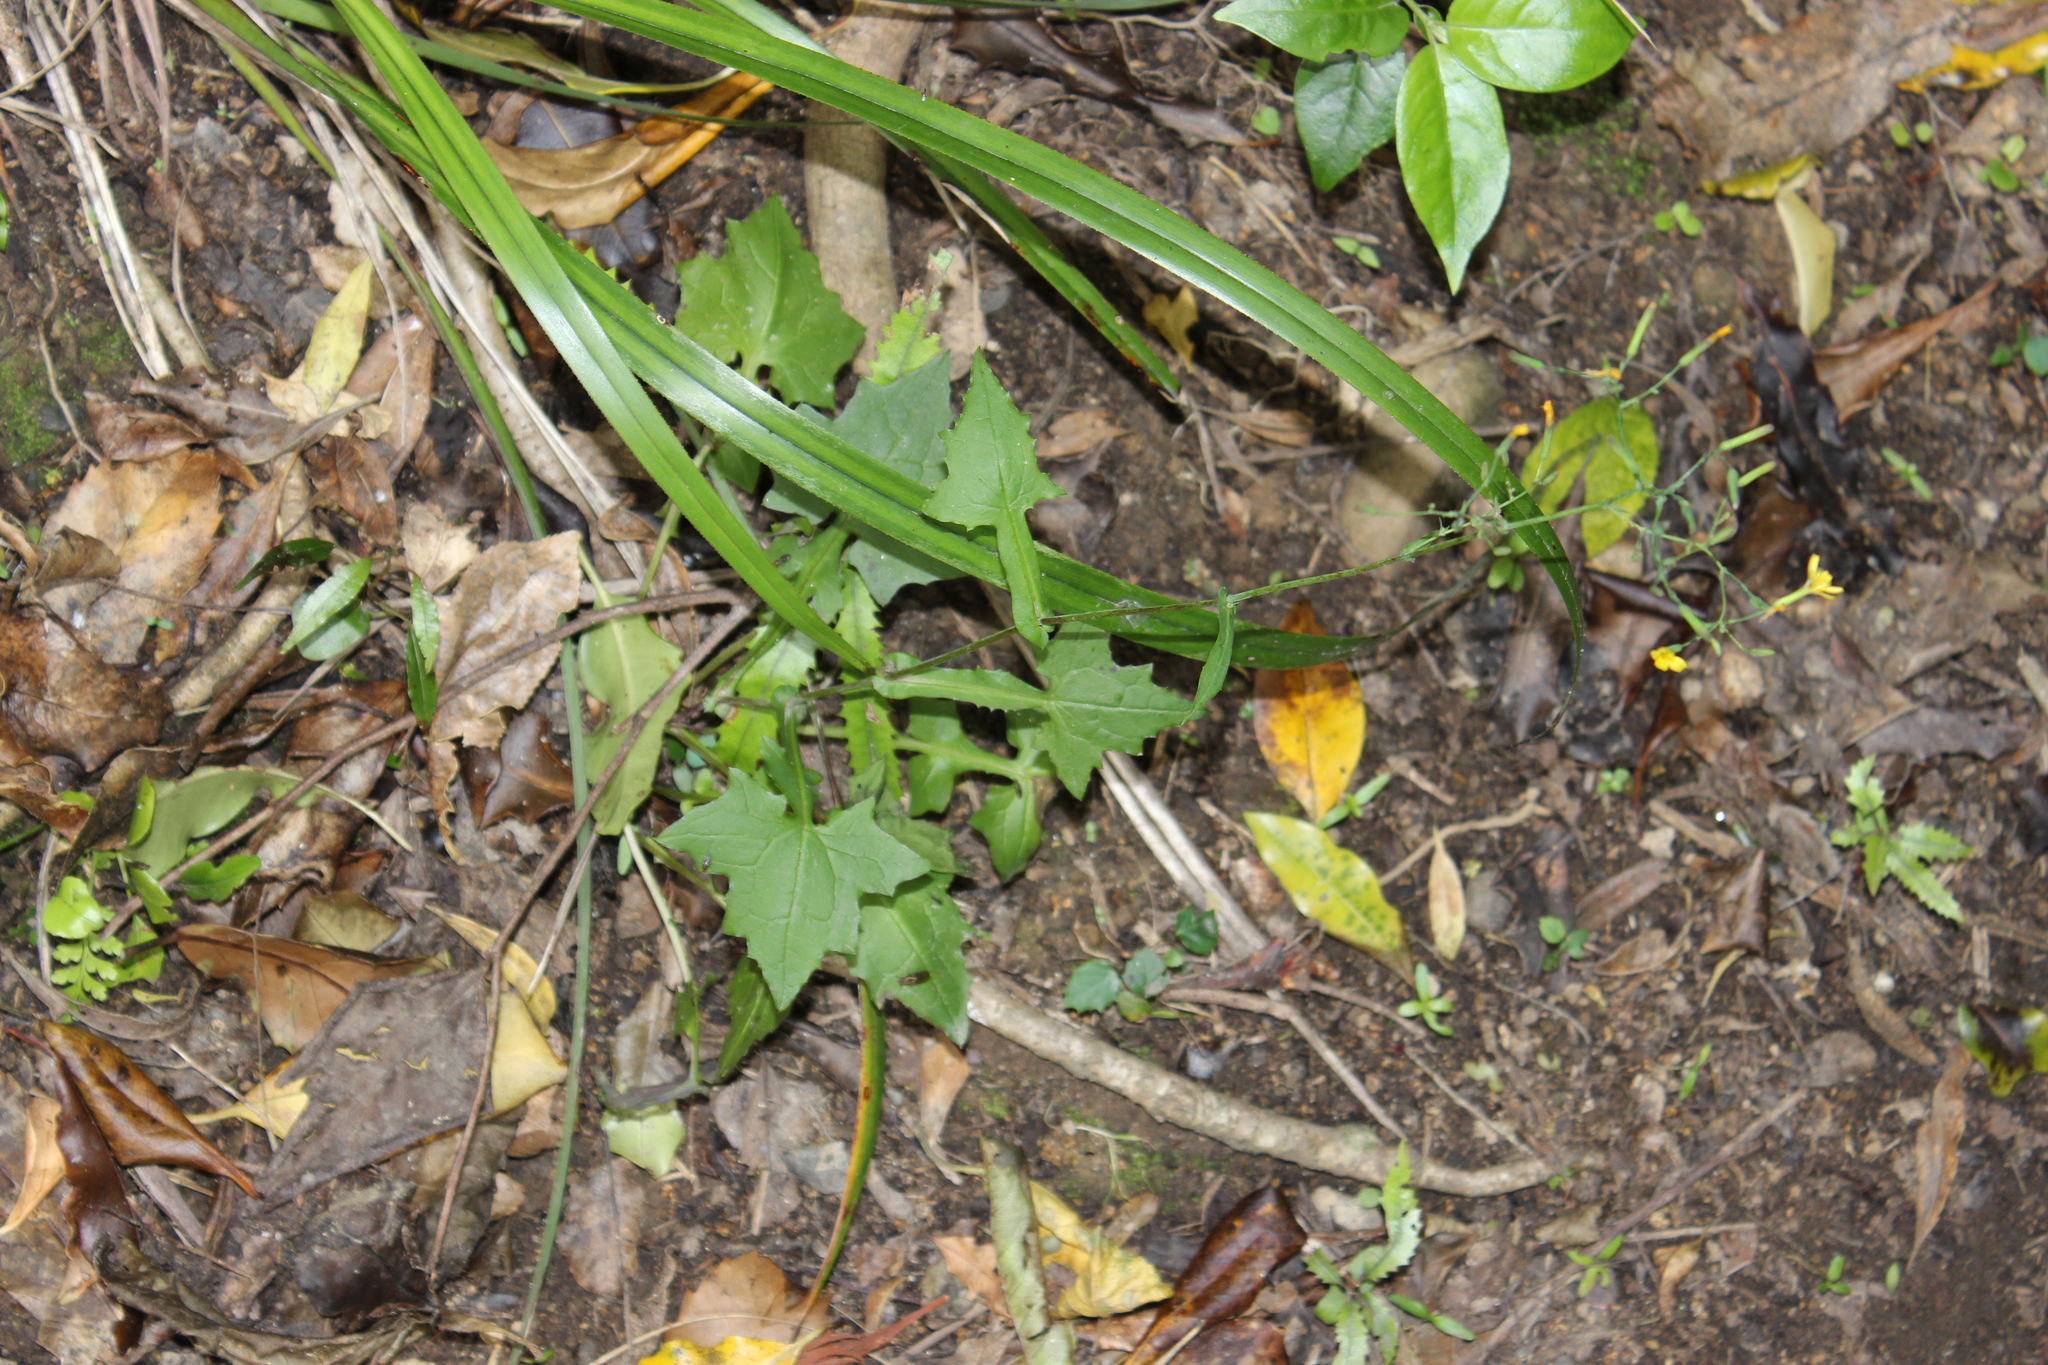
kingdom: Plantae
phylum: Tracheophyta
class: Magnoliopsida
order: Asterales
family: Asteraceae
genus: Mycelis
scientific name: Mycelis muralis
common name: Wall lettuce
